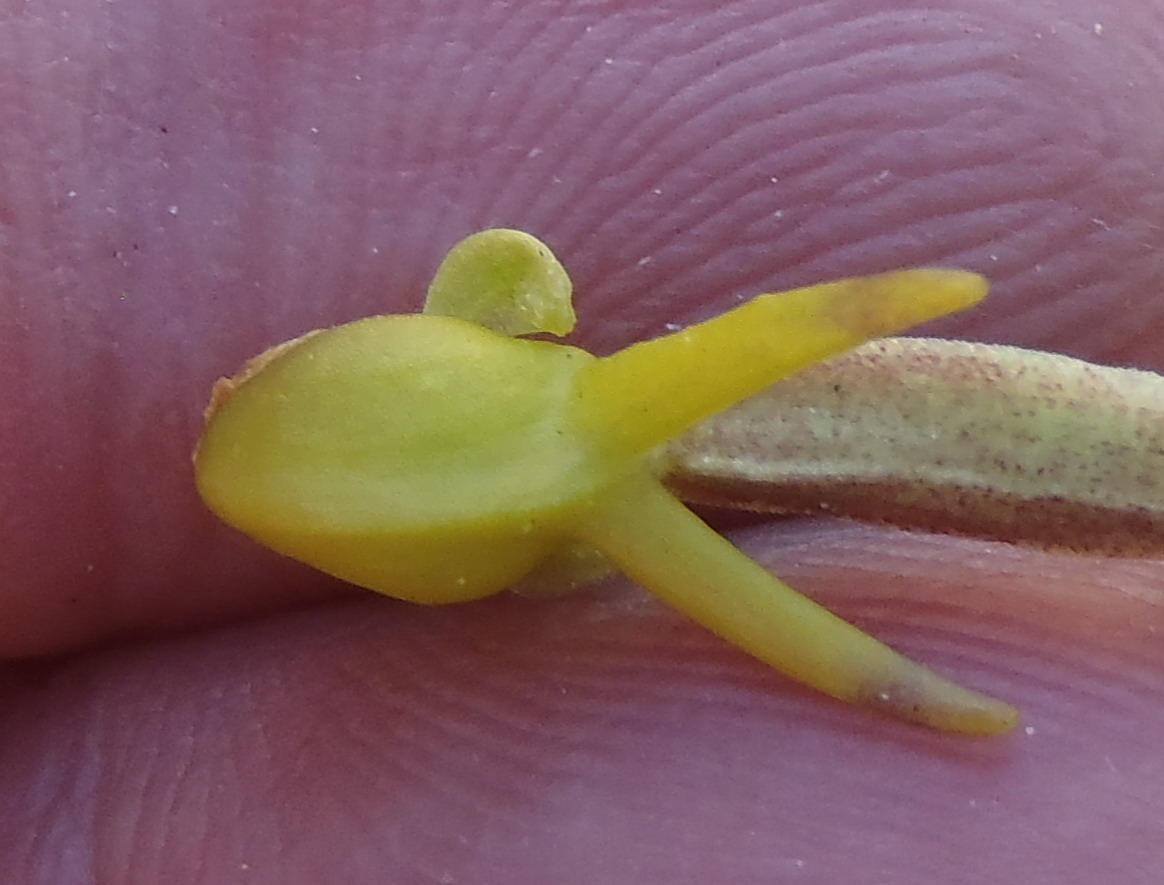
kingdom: Plantae
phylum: Tracheophyta
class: Liliopsida
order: Asparagales
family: Orchidaceae
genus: Satyrium
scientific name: Satyrium parviflorum
